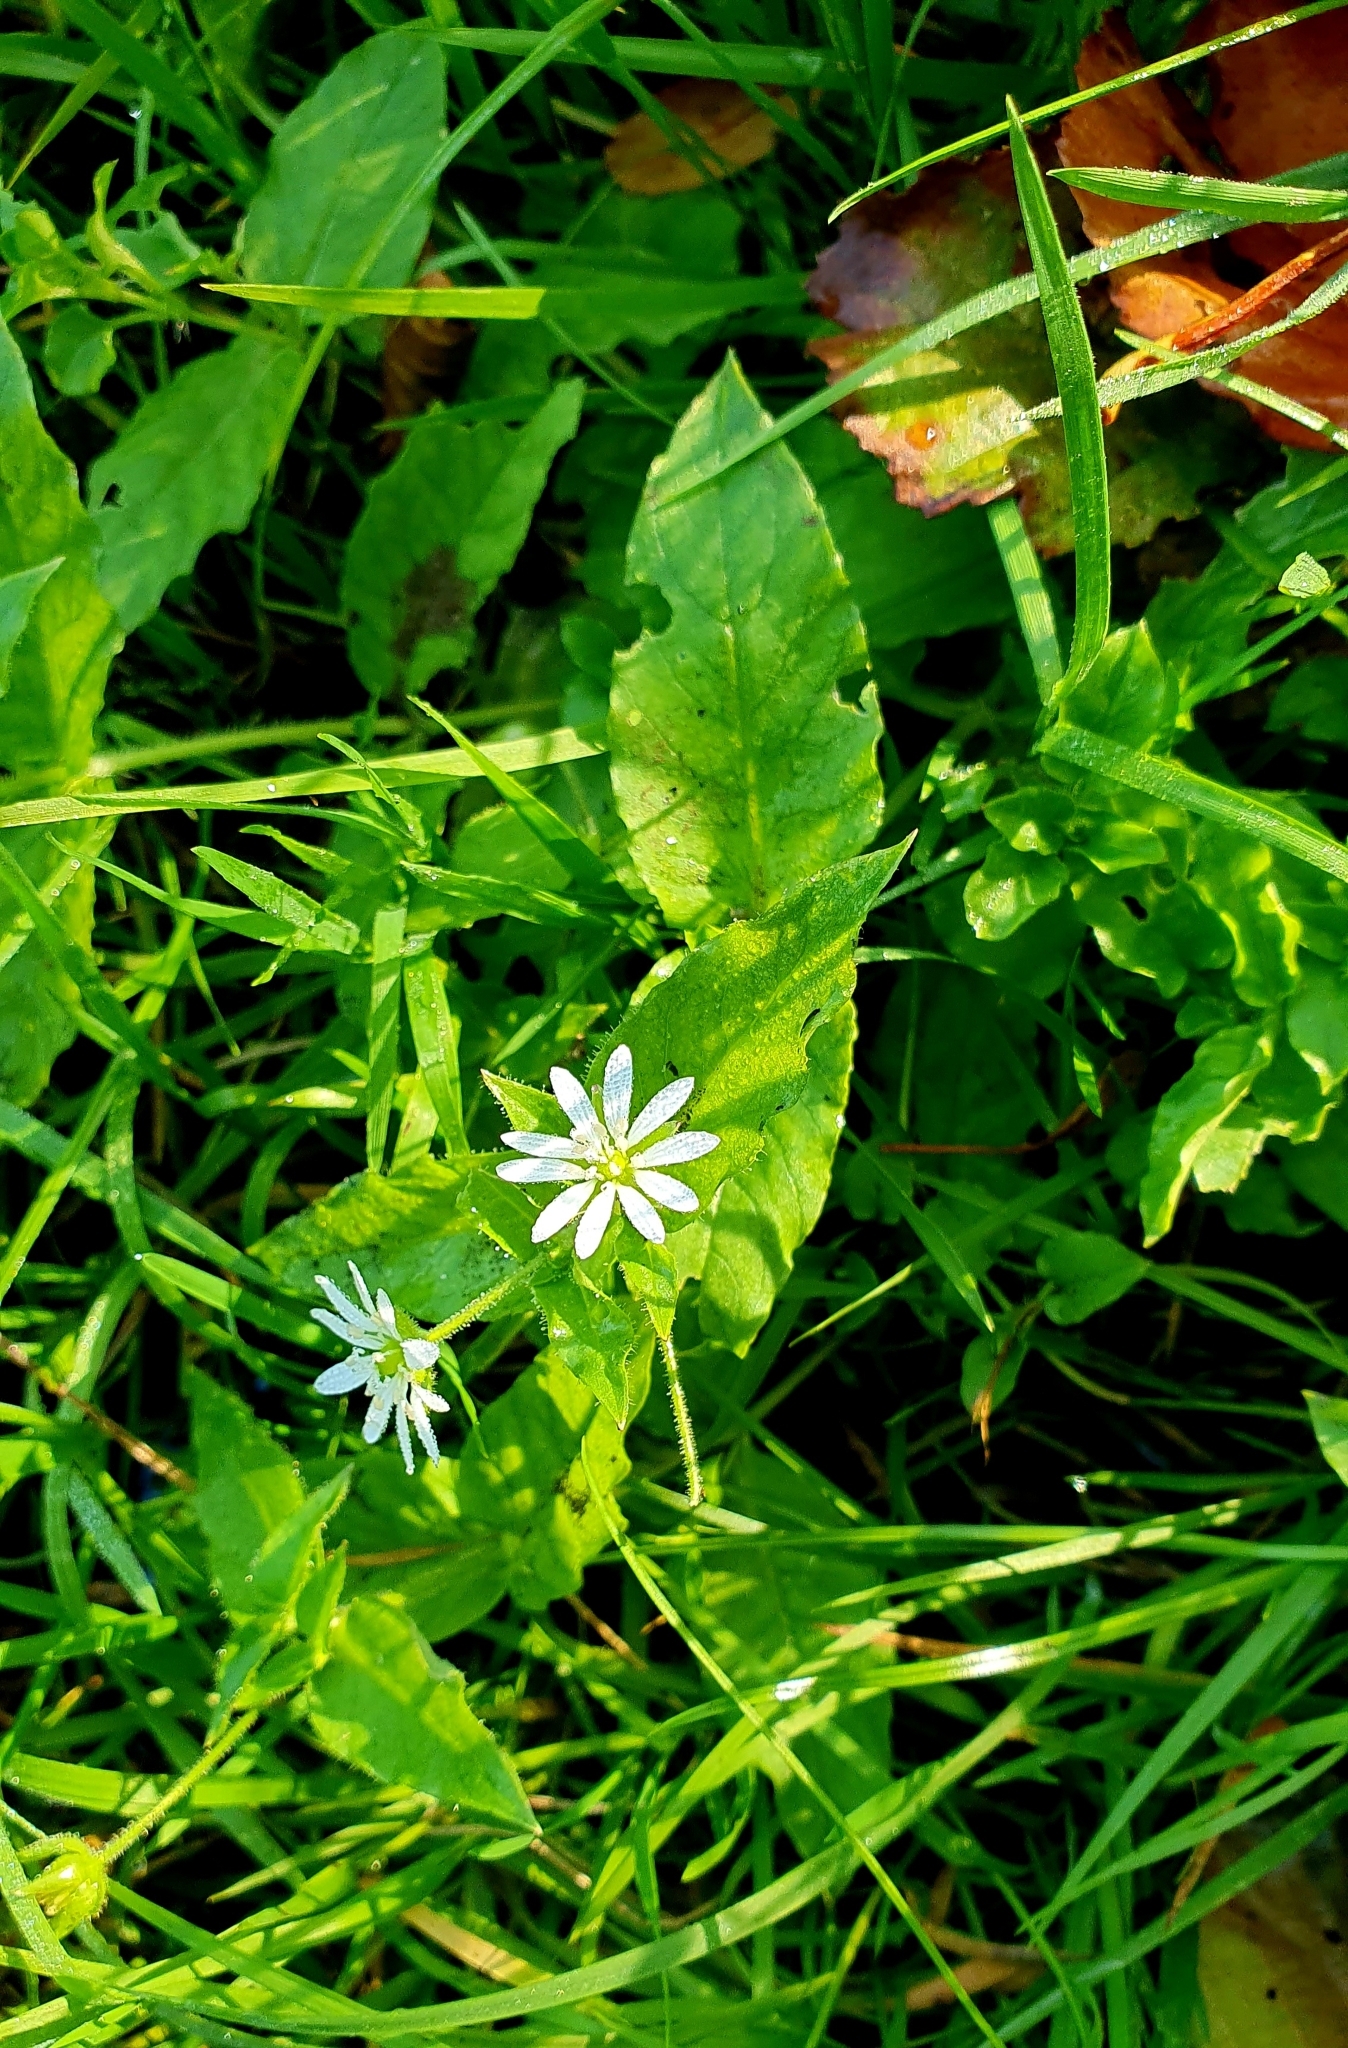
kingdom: Plantae
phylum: Tracheophyta
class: Magnoliopsida
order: Caryophyllales
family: Caryophyllaceae
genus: Stellaria
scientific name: Stellaria aquatica
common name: Water chickweed
